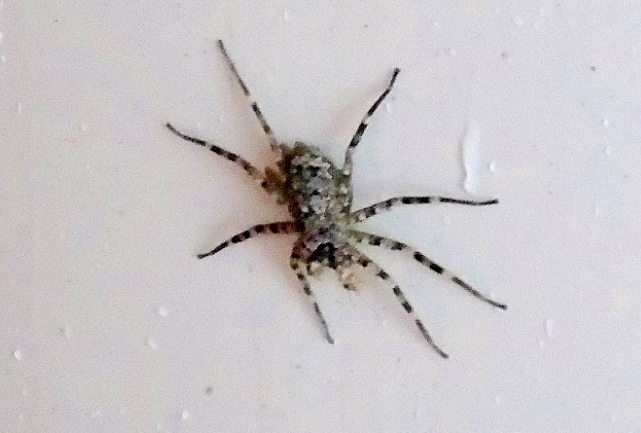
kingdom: Animalia
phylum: Arthropoda
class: Arachnida
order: Araneae
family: Selenopidae
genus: Selenops
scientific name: Selenops
